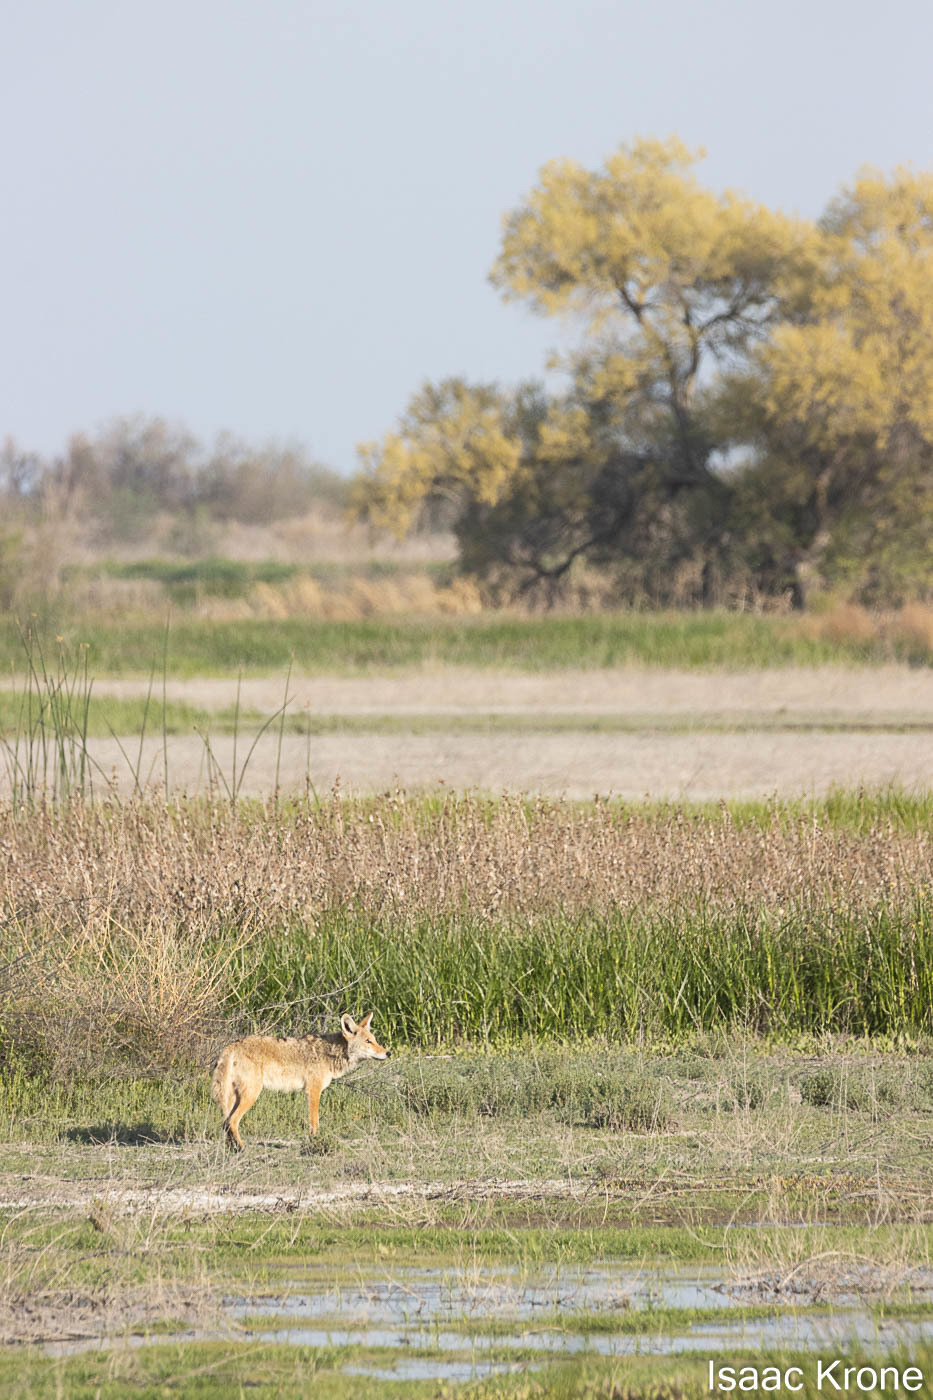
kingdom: Animalia
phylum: Chordata
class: Mammalia
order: Carnivora
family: Canidae
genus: Canis
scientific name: Canis latrans
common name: Coyote
